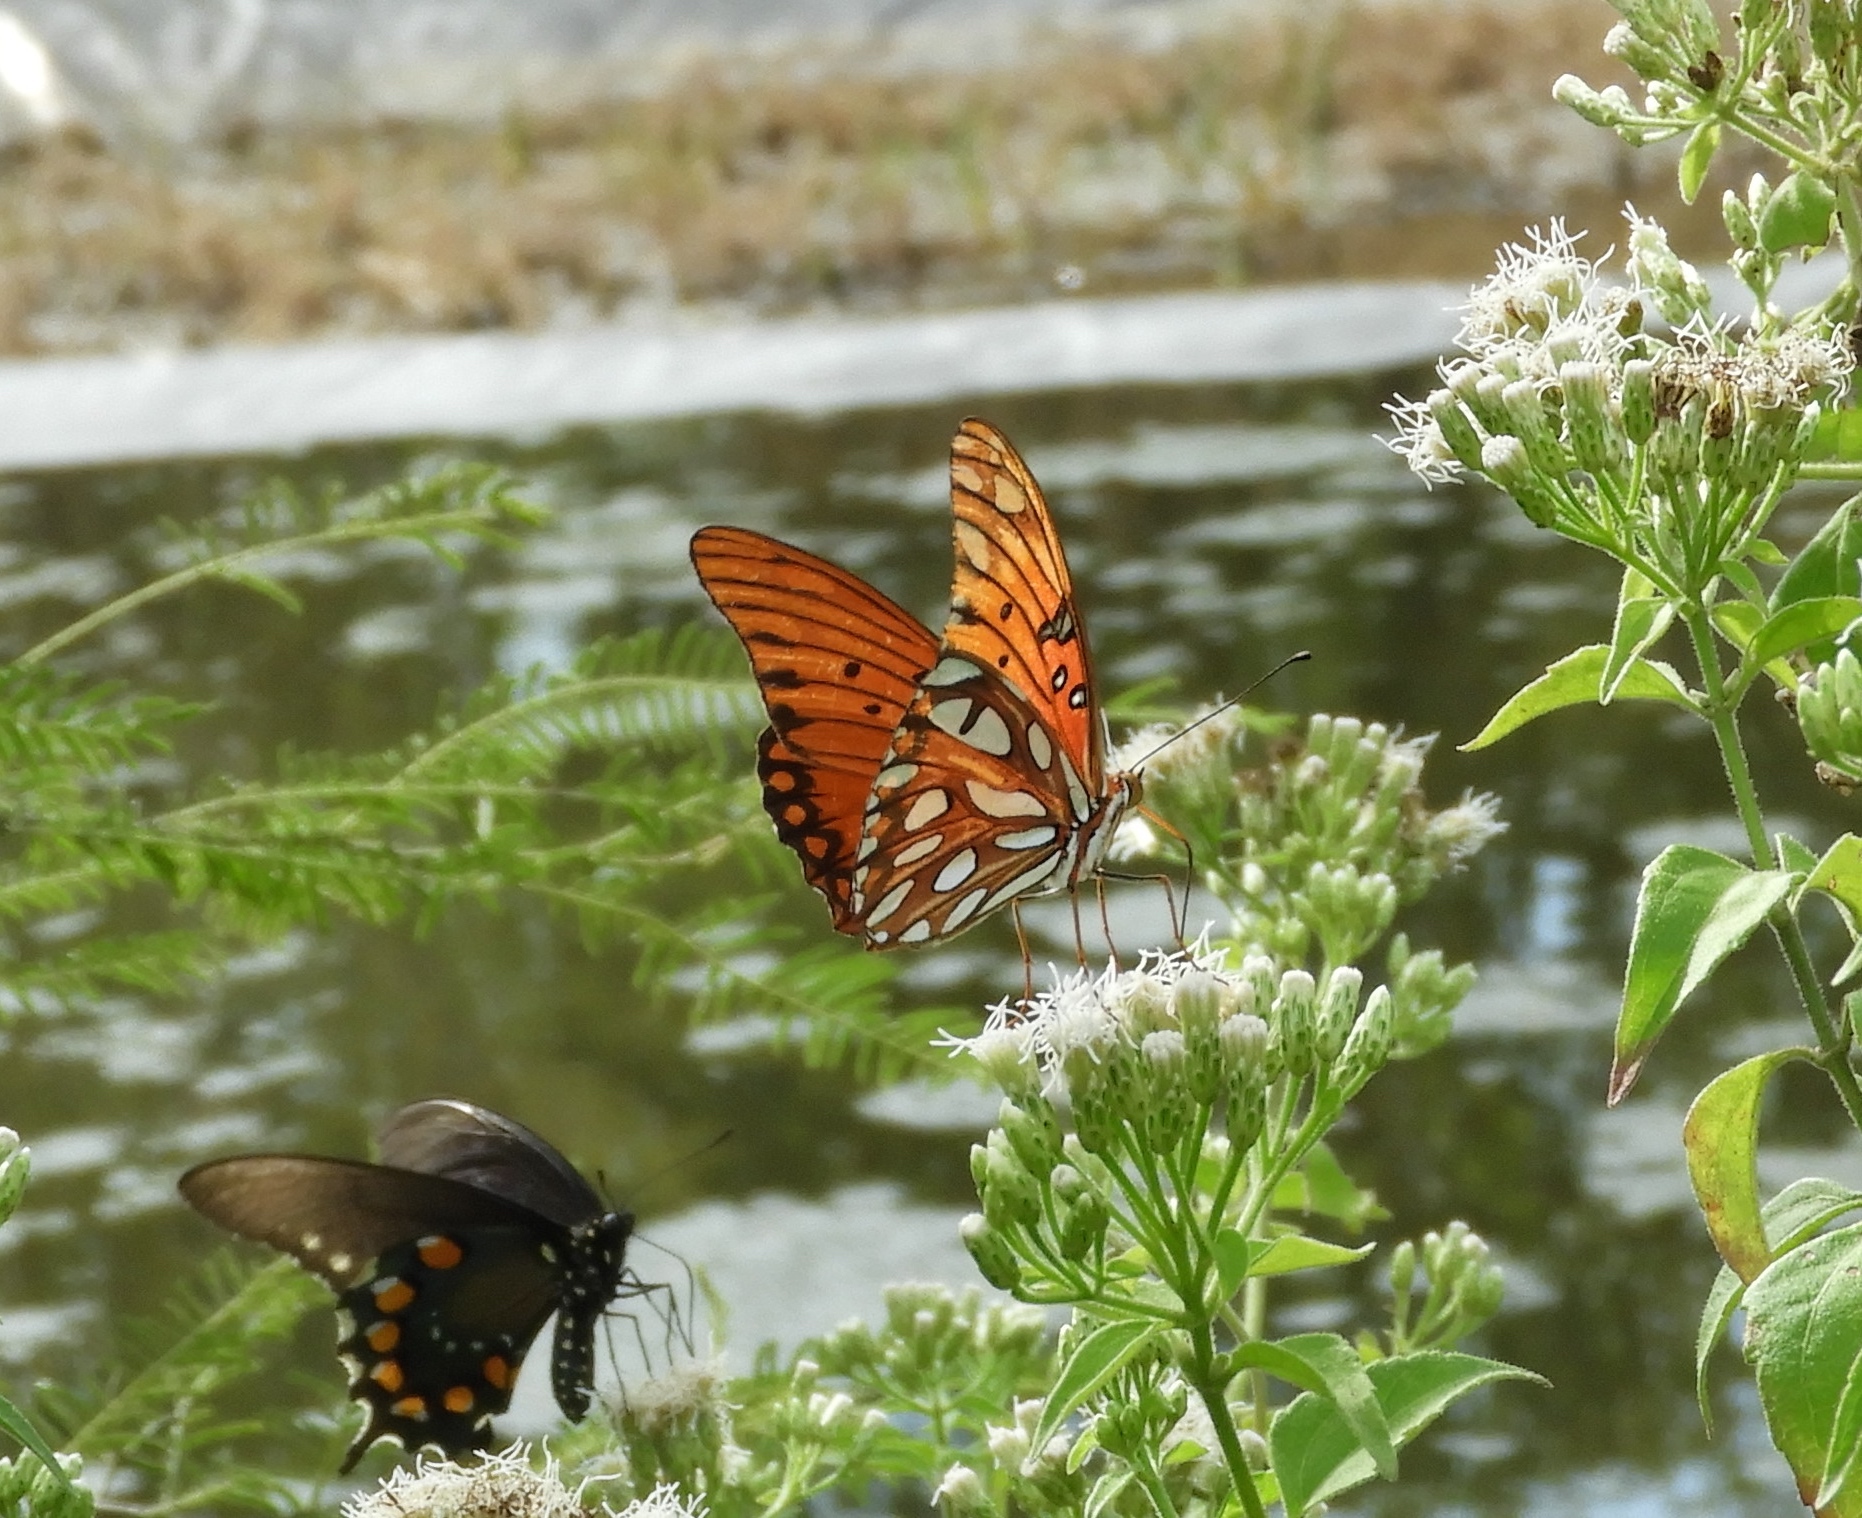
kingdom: Animalia
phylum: Arthropoda
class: Insecta
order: Lepidoptera
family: Nymphalidae
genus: Dione
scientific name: Dione vanillae
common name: Gulf fritillary
